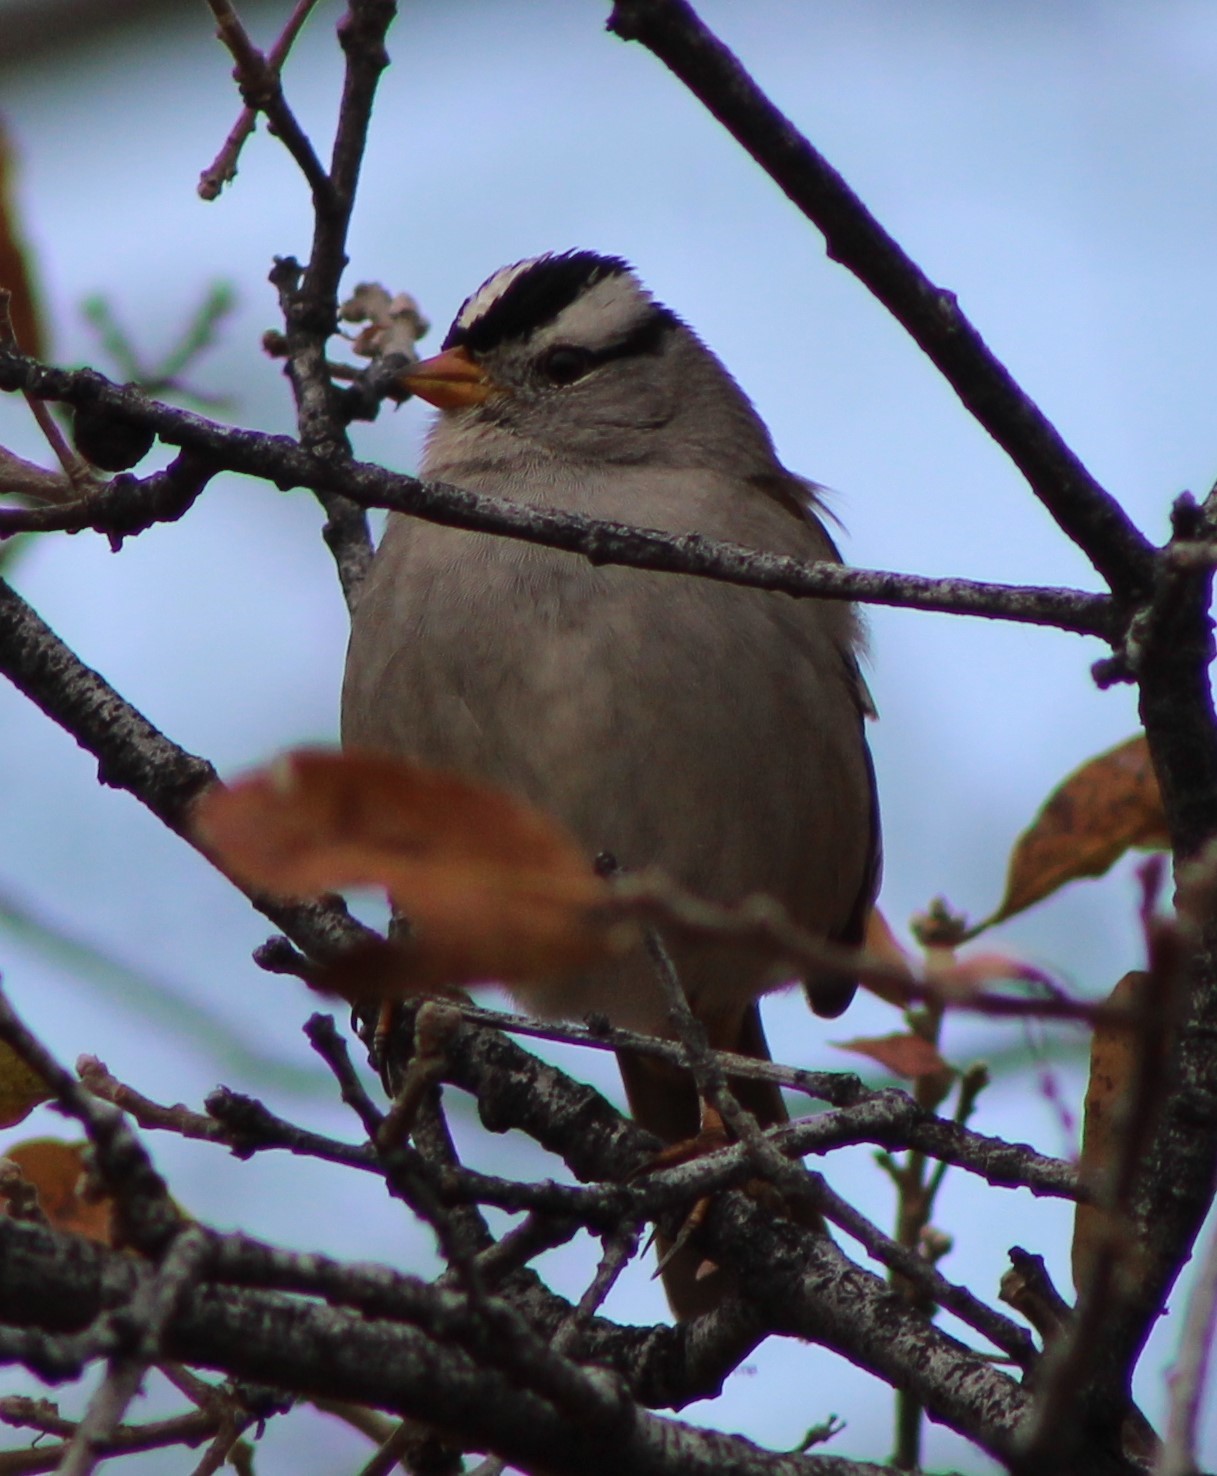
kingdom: Animalia
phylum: Chordata
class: Aves
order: Passeriformes
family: Passerellidae
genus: Zonotrichia
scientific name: Zonotrichia leucophrys
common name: White-crowned sparrow
